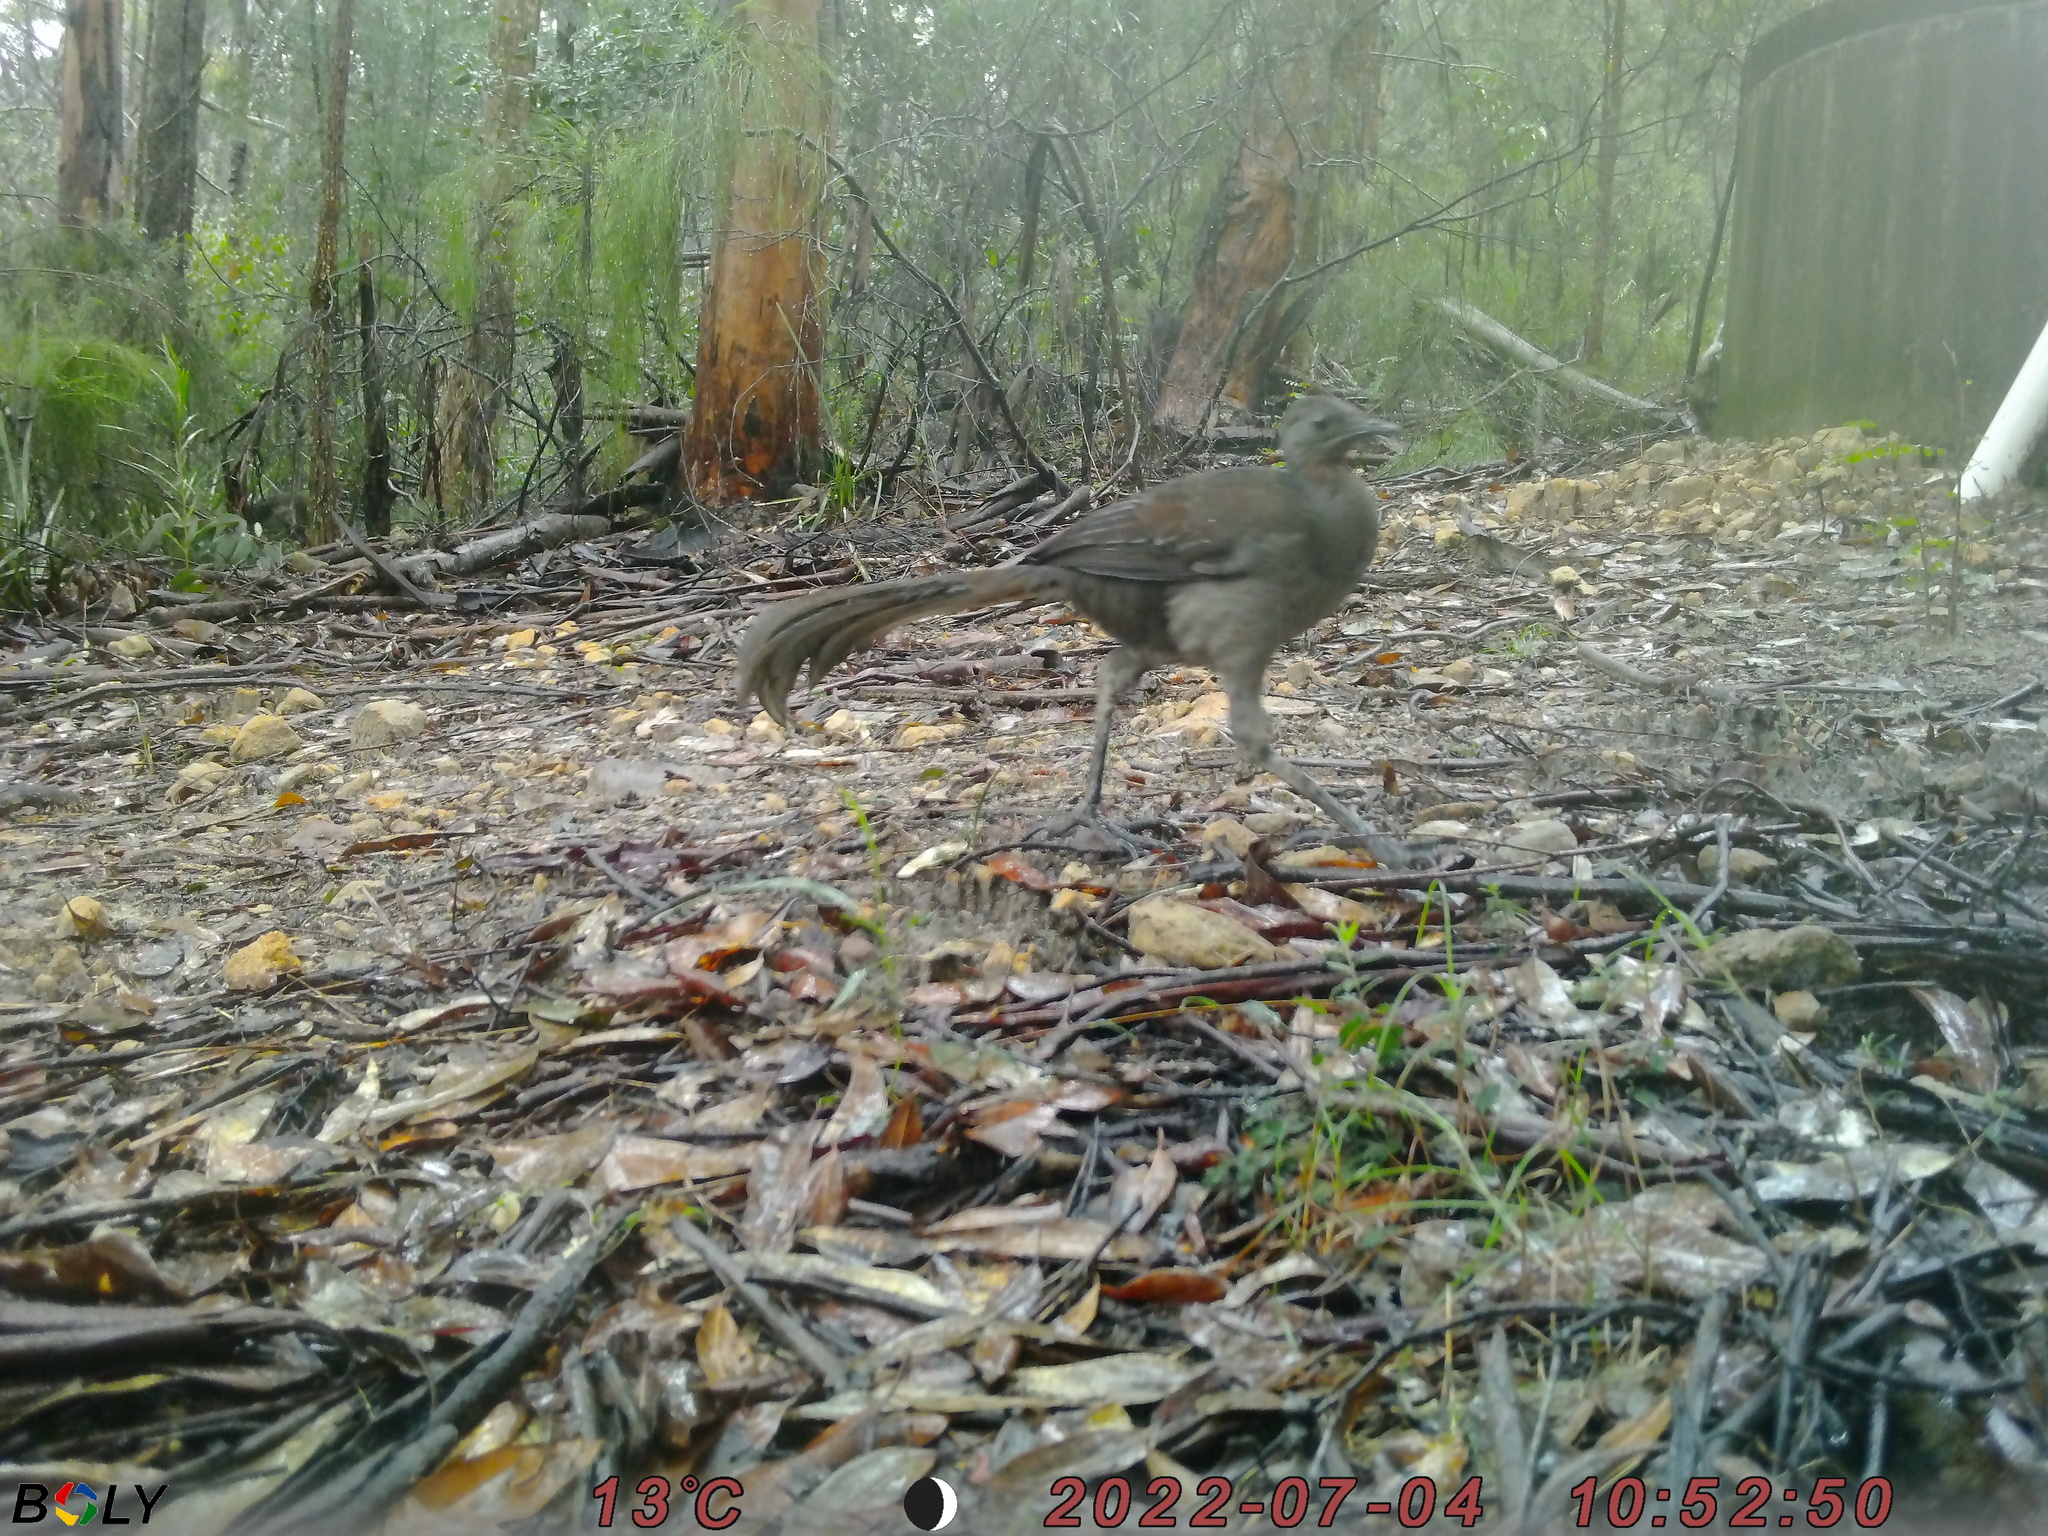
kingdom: Animalia
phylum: Chordata
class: Aves
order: Passeriformes
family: Menuridae
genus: Menura
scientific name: Menura novaehollandiae
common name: Superb lyrebird
